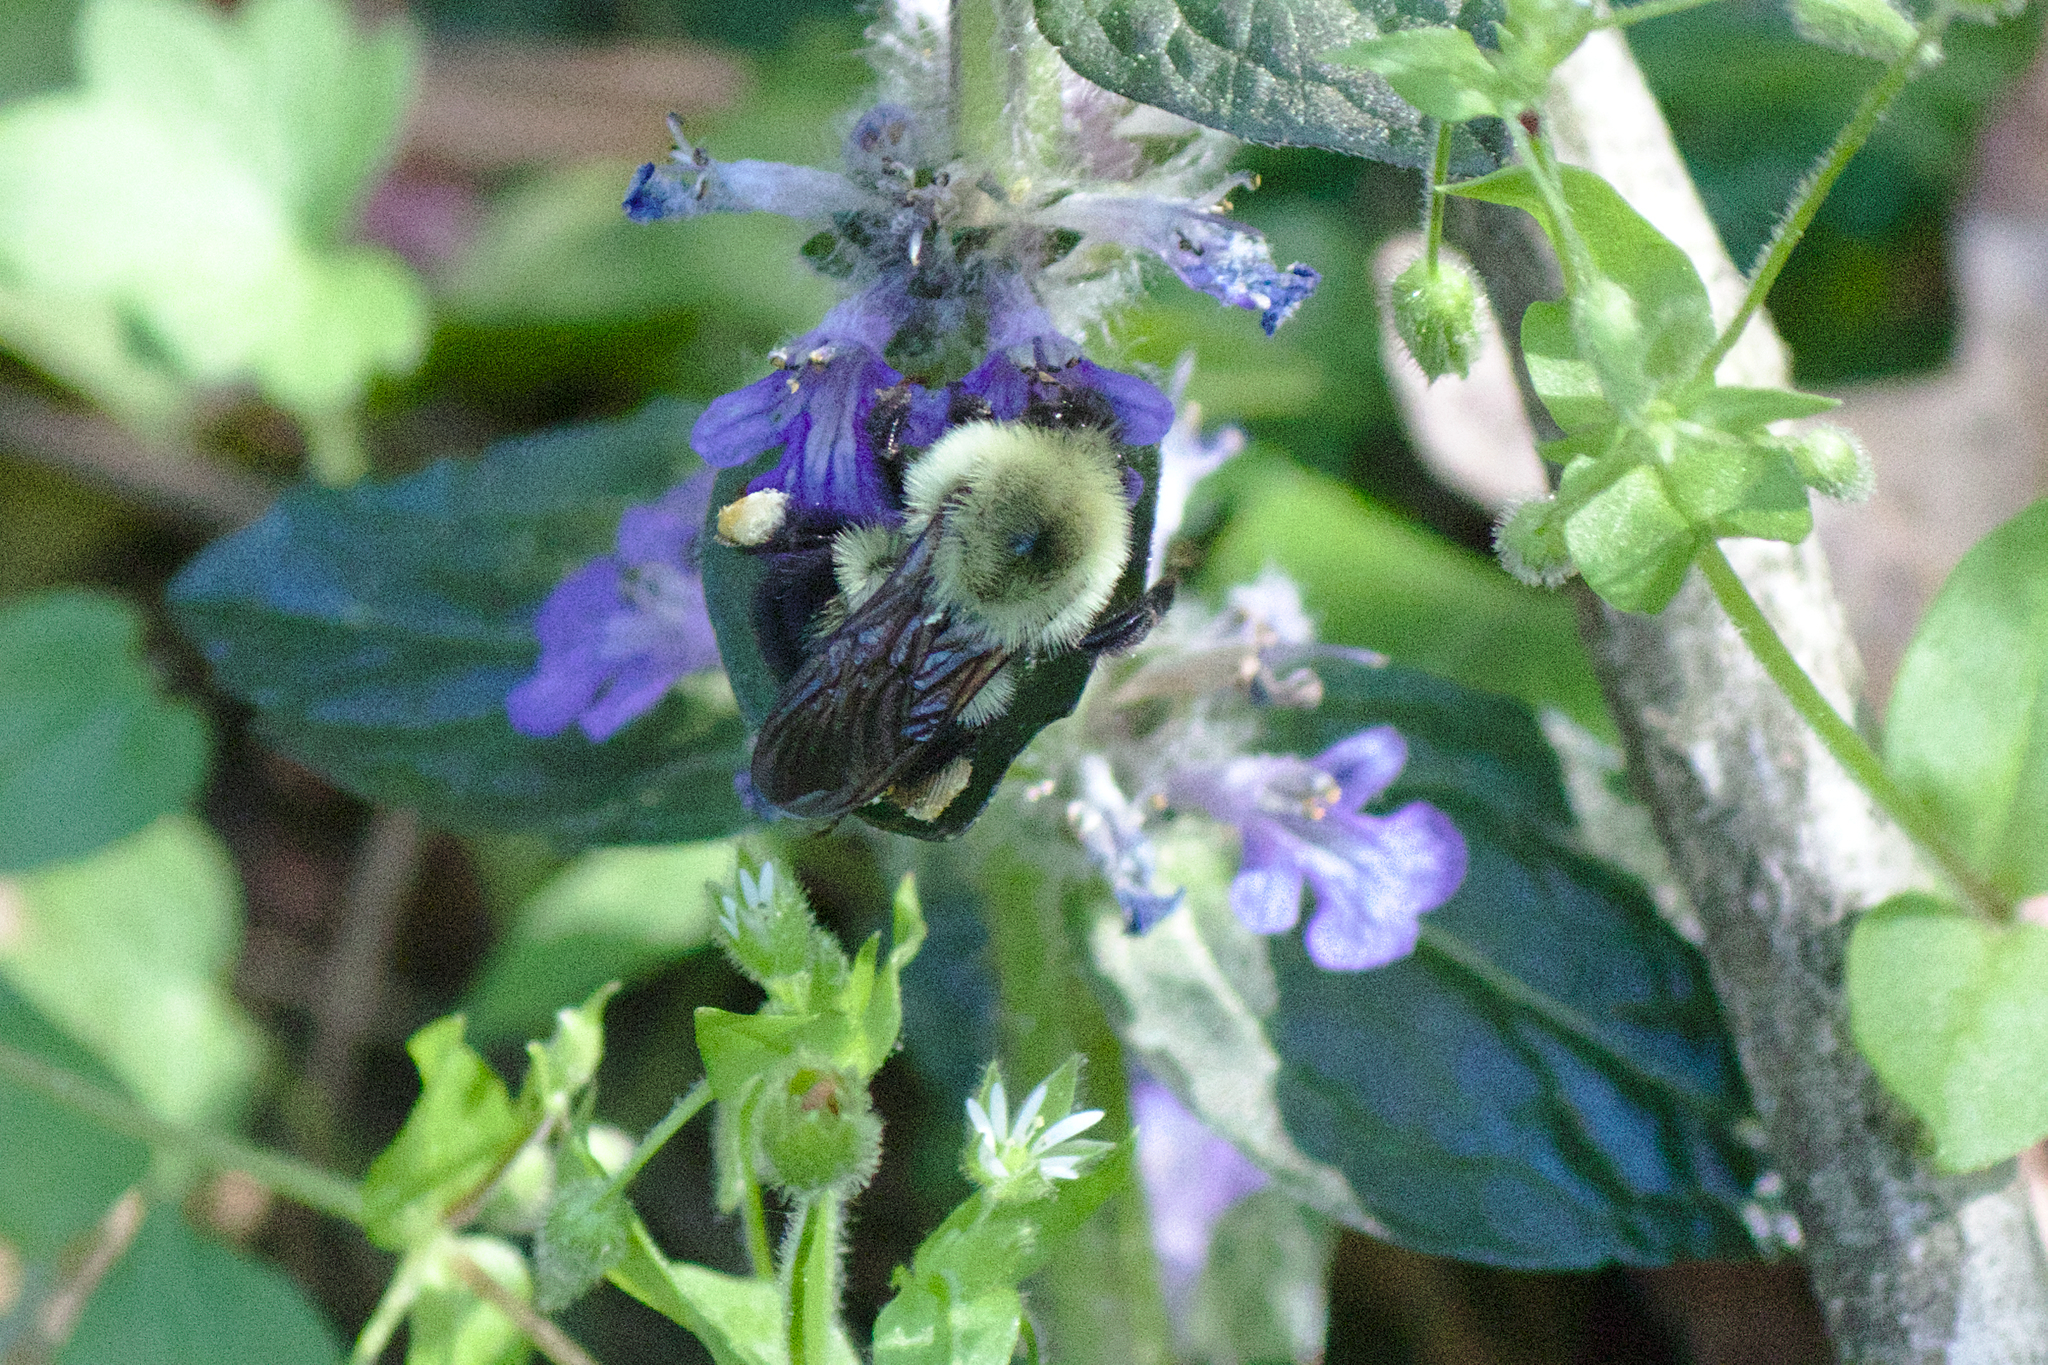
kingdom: Animalia
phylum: Arthropoda
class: Insecta
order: Hymenoptera
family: Apidae
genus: Bombus
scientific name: Bombus bimaculatus
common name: Two-spotted bumble bee
